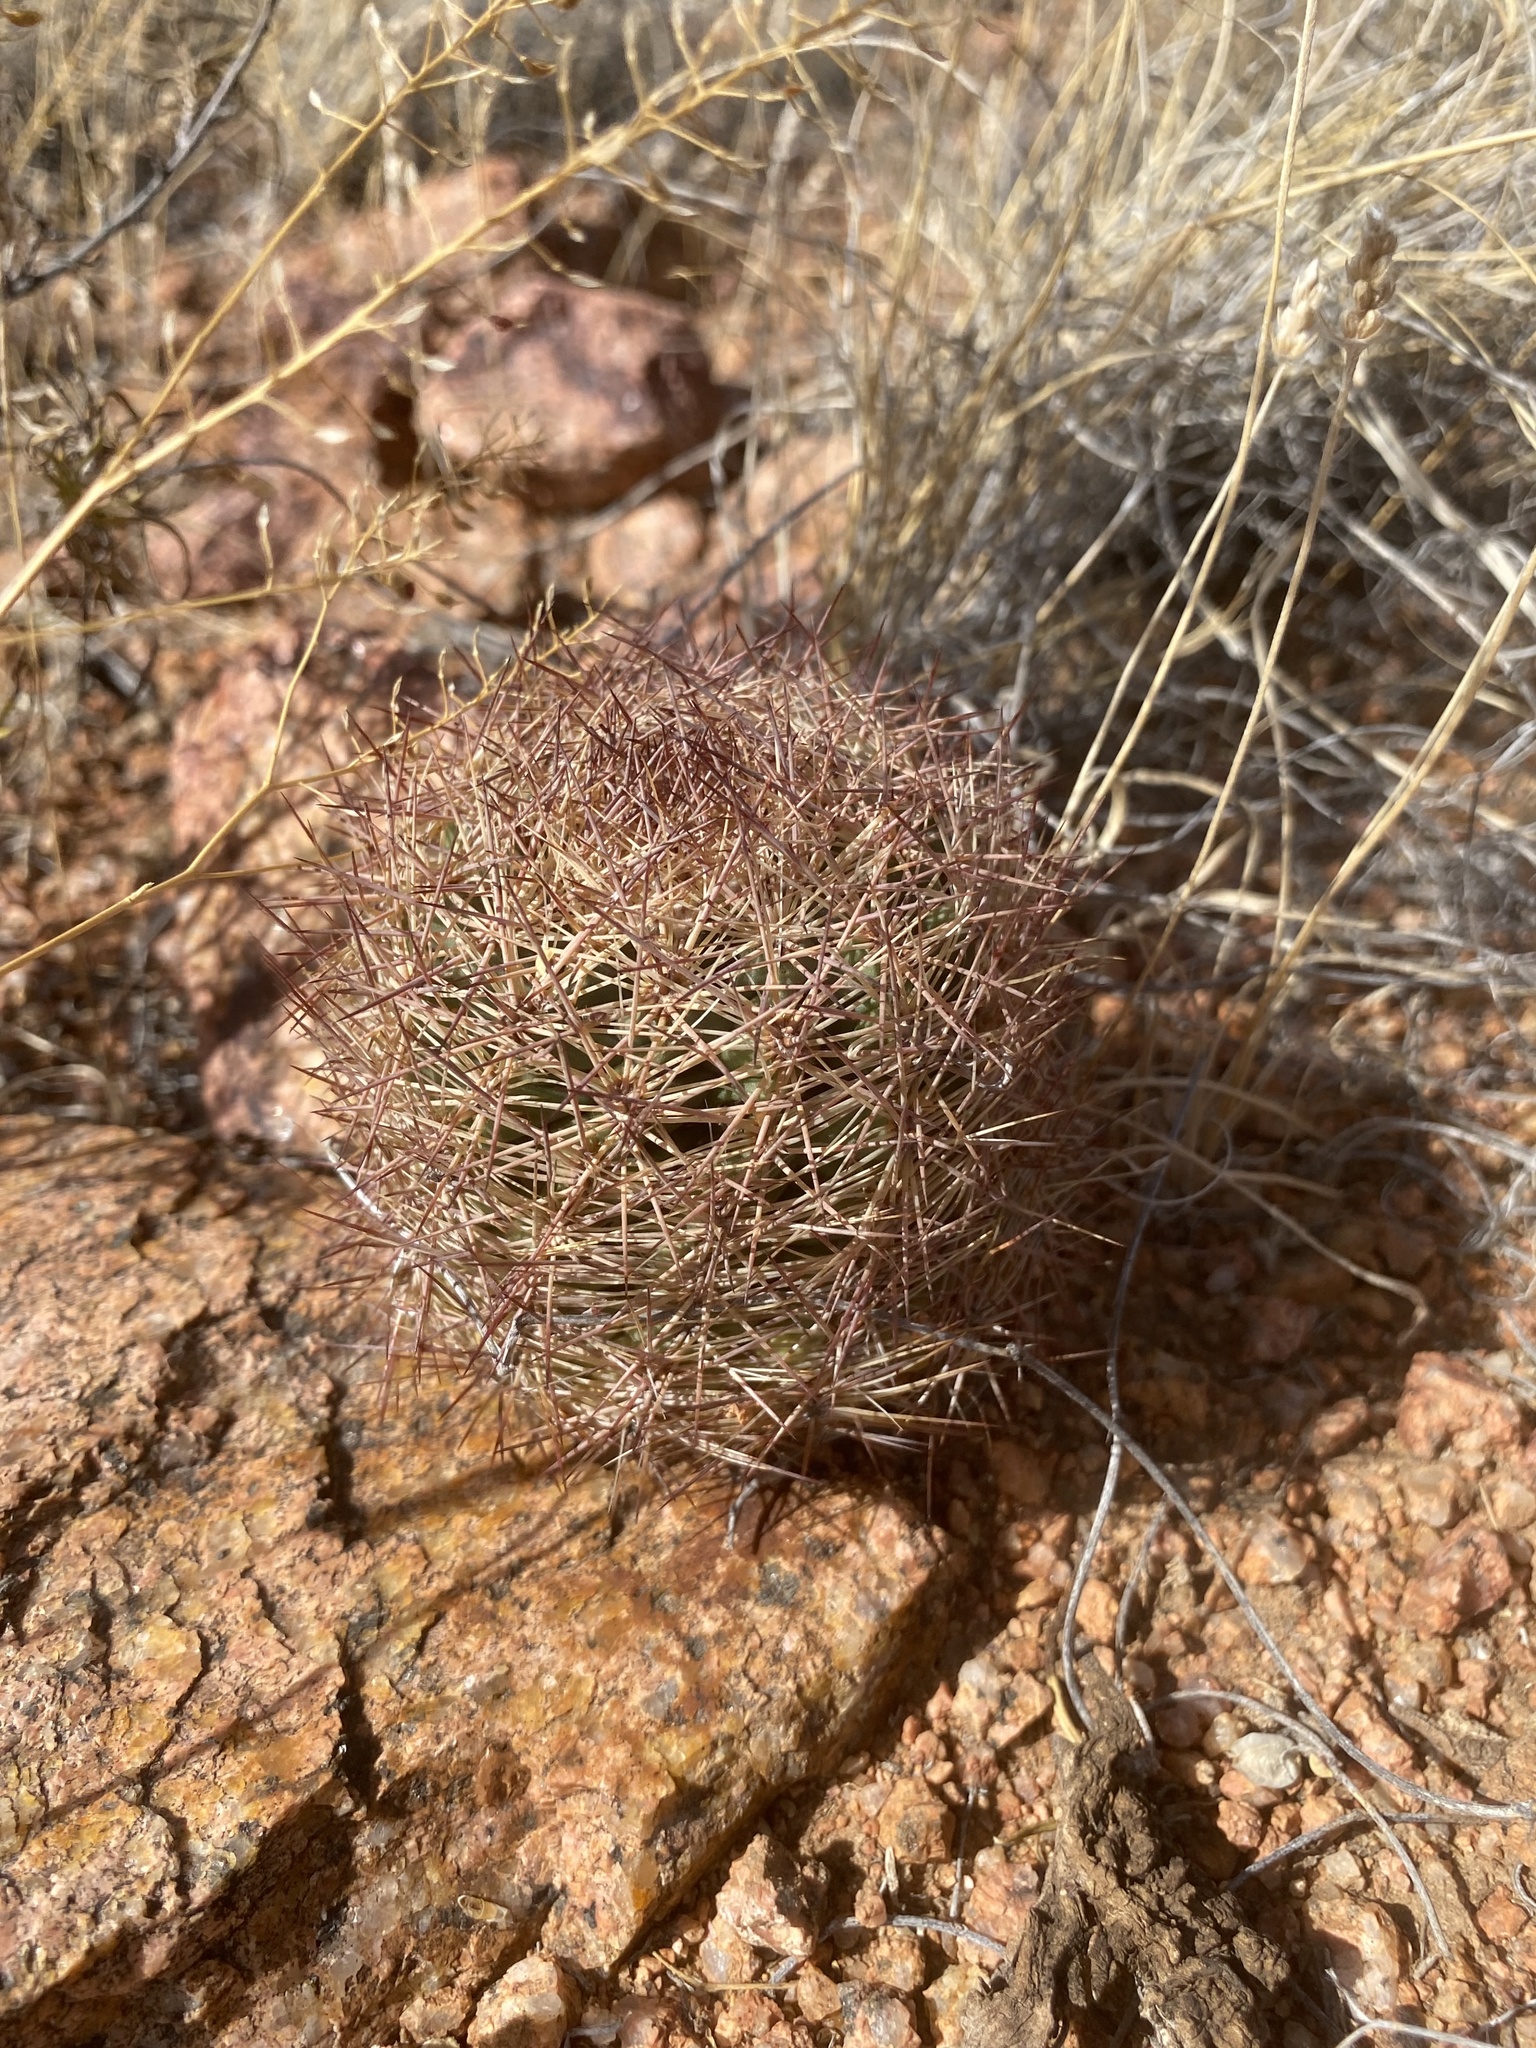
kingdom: Plantae
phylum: Tracheophyta
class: Magnoliopsida
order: Caryophyllales
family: Cactaceae
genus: Sclerocactus
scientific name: Sclerocactus intertextus
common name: White fish-hook cactus
